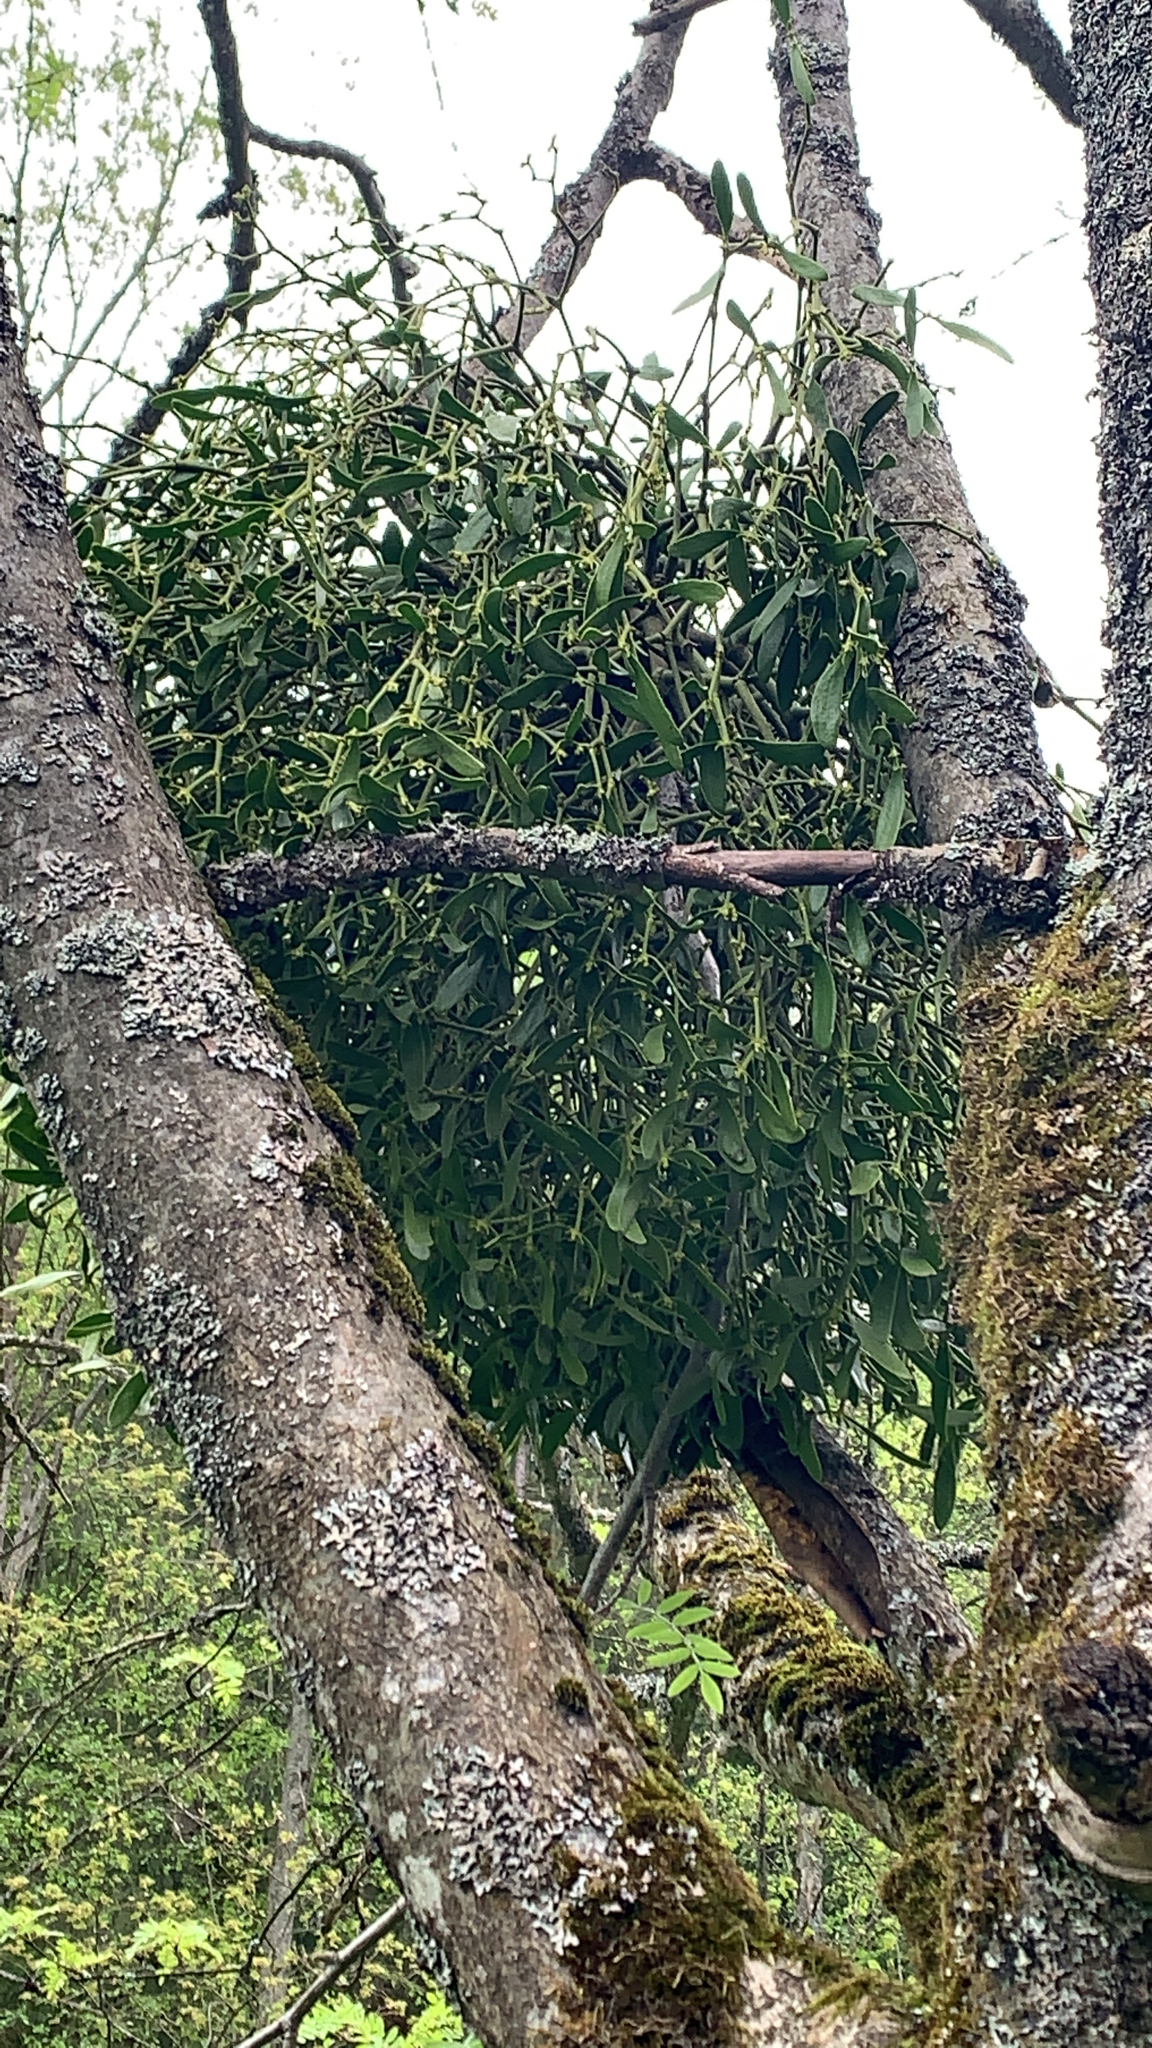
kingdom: Plantae
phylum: Tracheophyta
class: Magnoliopsida
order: Santalales
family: Viscaceae
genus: Viscum
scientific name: Viscum album
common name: Mistletoe
